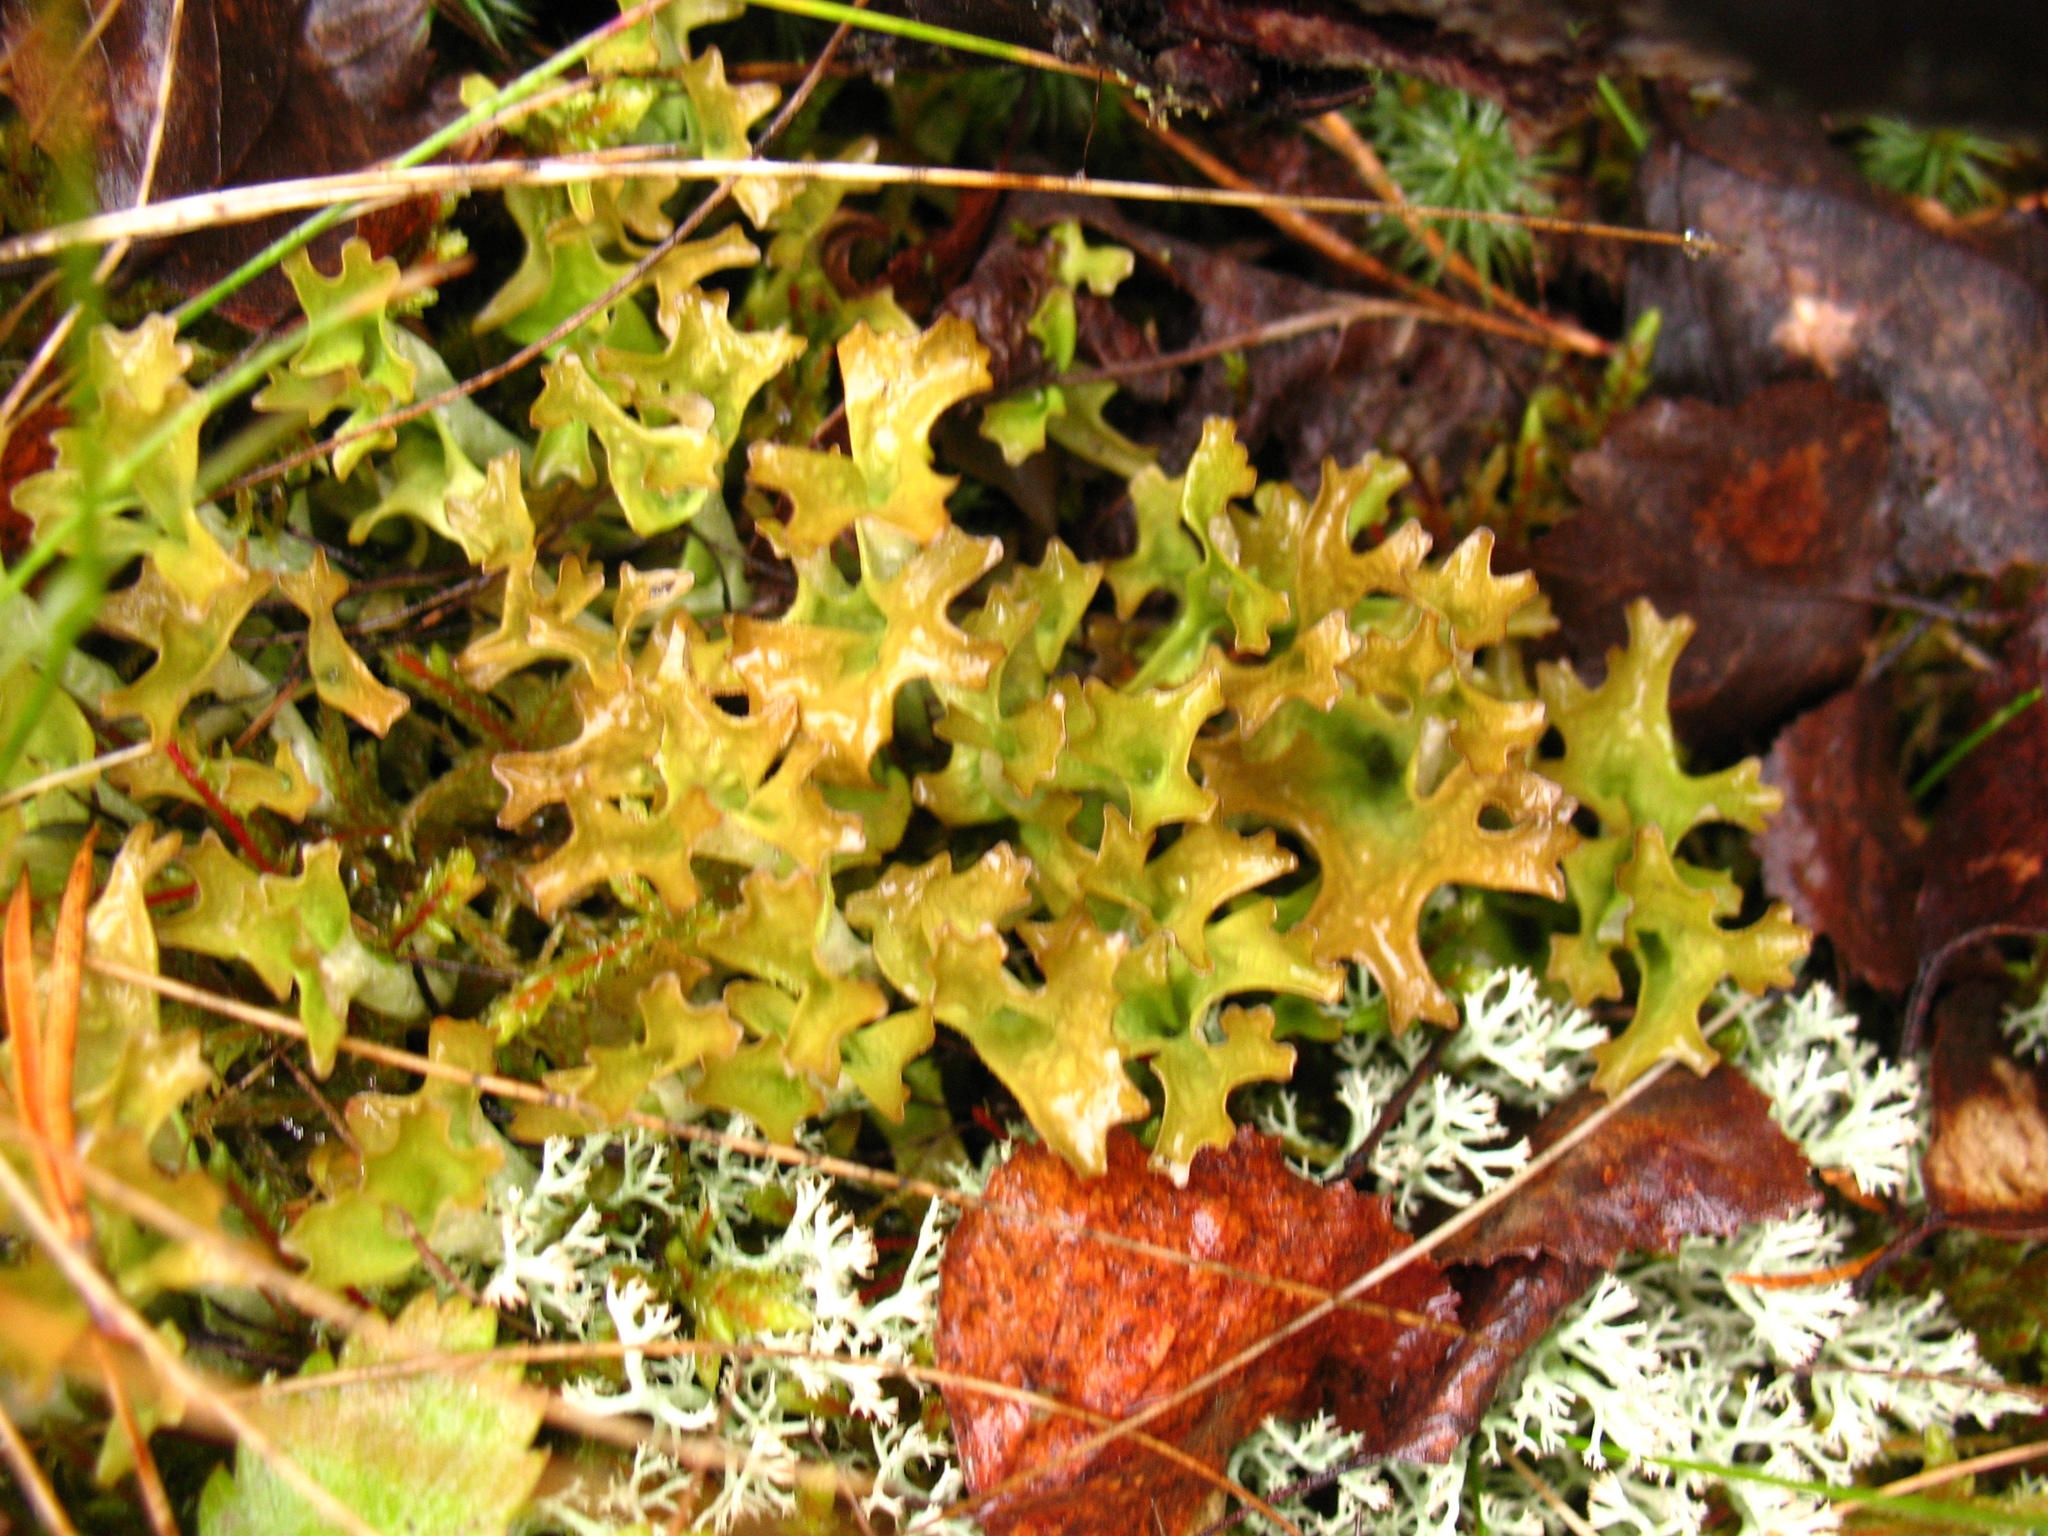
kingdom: Fungi
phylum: Ascomycota
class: Lecanoromycetes
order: Lecanorales
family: Parmeliaceae
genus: Cetraria
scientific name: Cetraria islandica
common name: Iceland lichen
